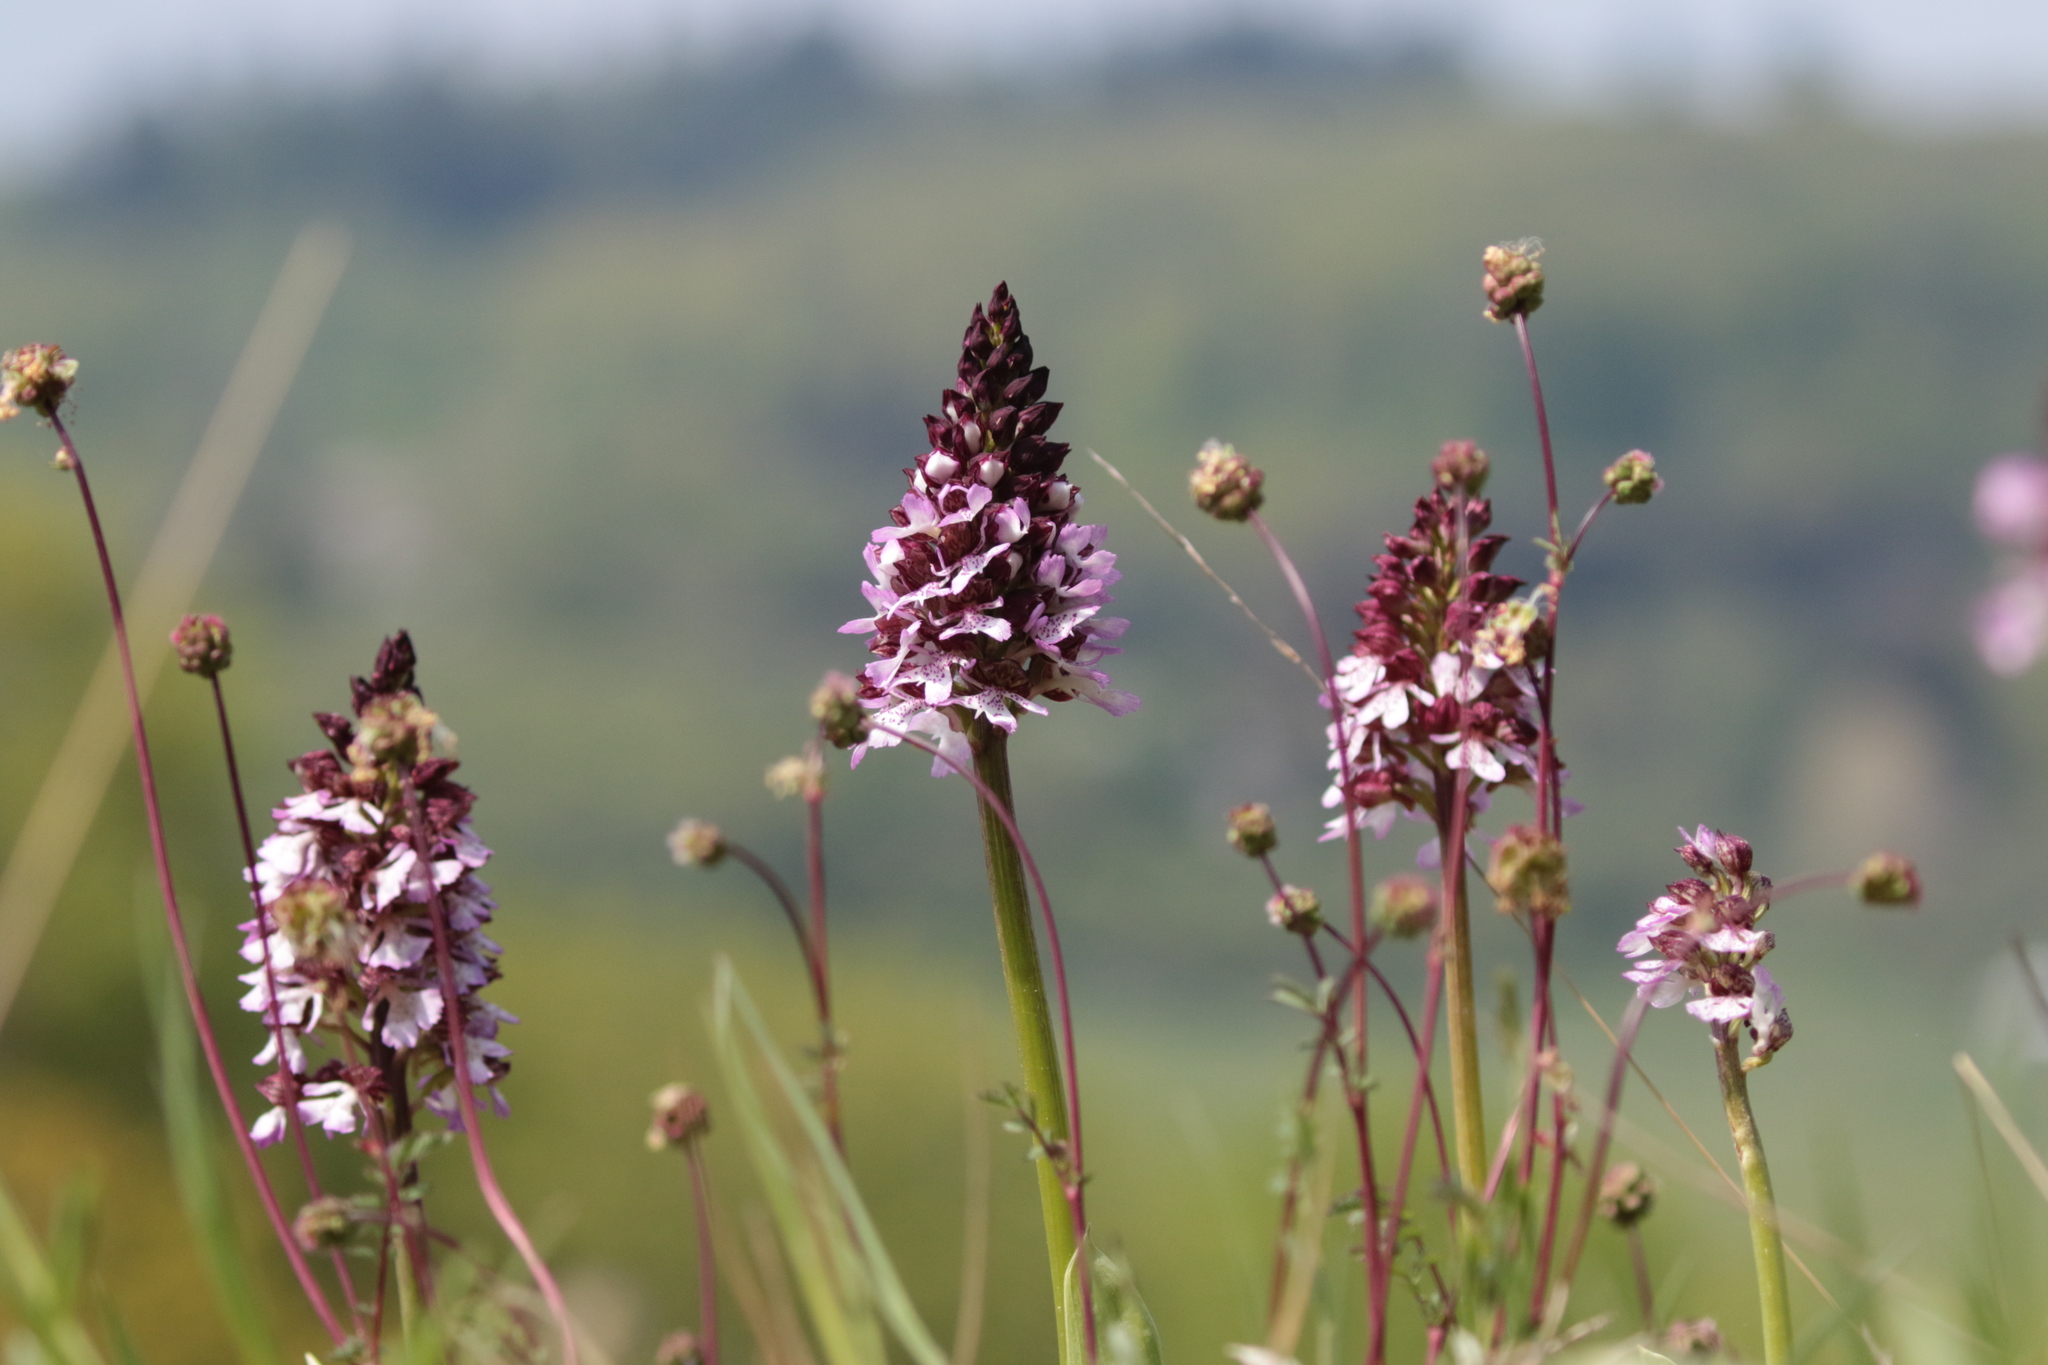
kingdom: Plantae
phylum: Tracheophyta
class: Liliopsida
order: Asparagales
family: Orchidaceae
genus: Orchis
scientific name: Orchis purpurea
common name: Lady orchid
